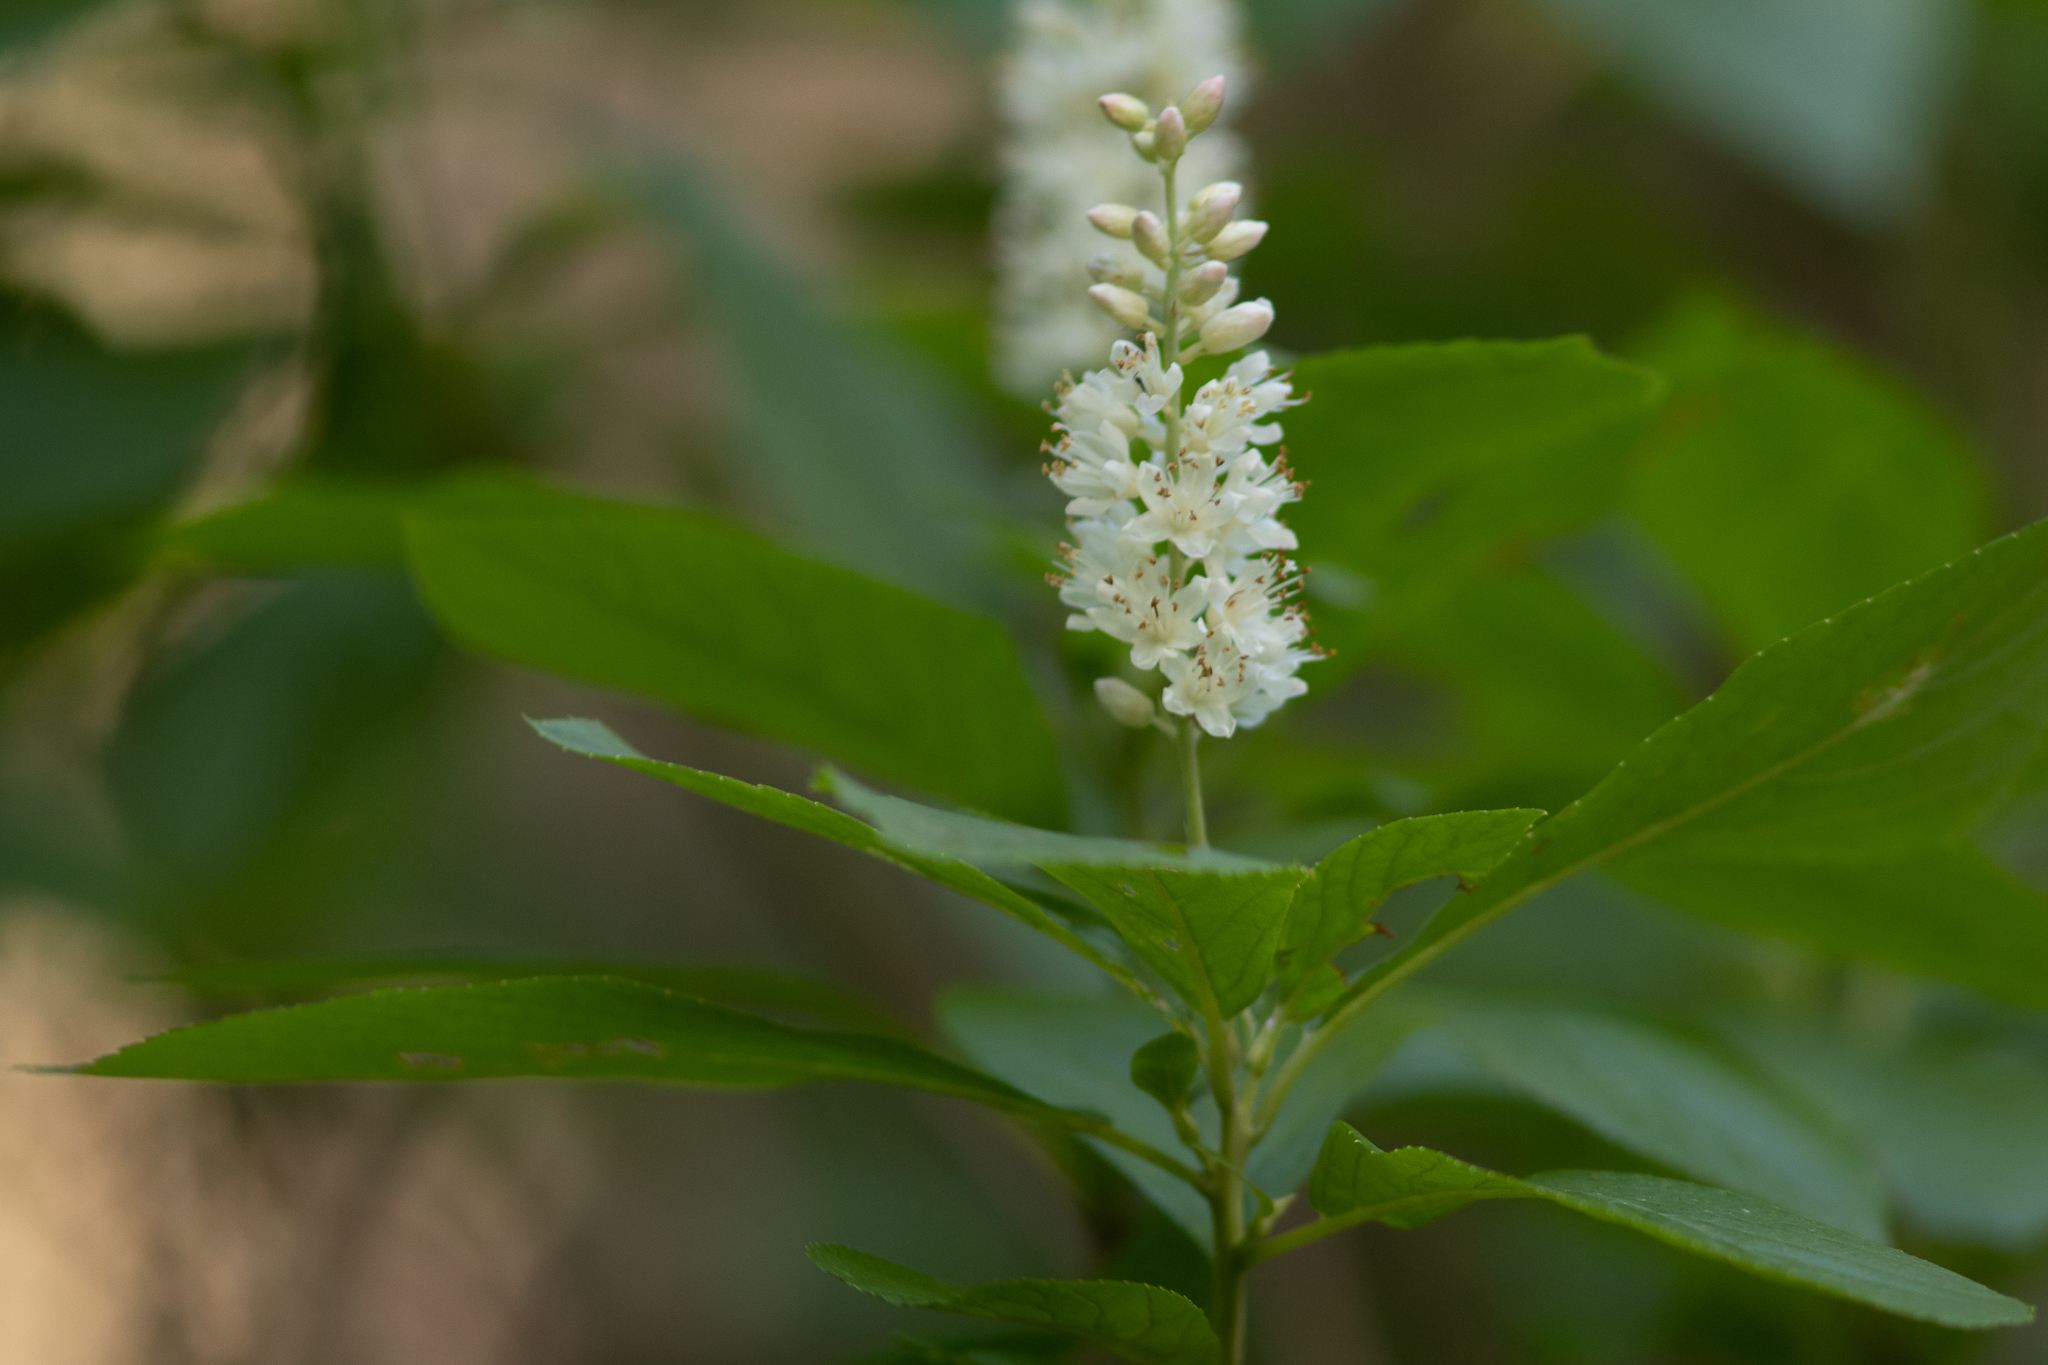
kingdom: Plantae
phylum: Tracheophyta
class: Magnoliopsida
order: Ericales
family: Clethraceae
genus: Clethra
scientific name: Clethra alnifolia
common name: Sweet pepperbush
